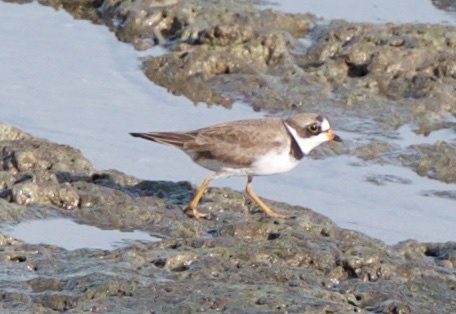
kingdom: Animalia
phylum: Chordata
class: Aves
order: Charadriiformes
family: Charadriidae
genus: Charadrius
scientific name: Charadrius semipalmatus
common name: Semipalmated plover
